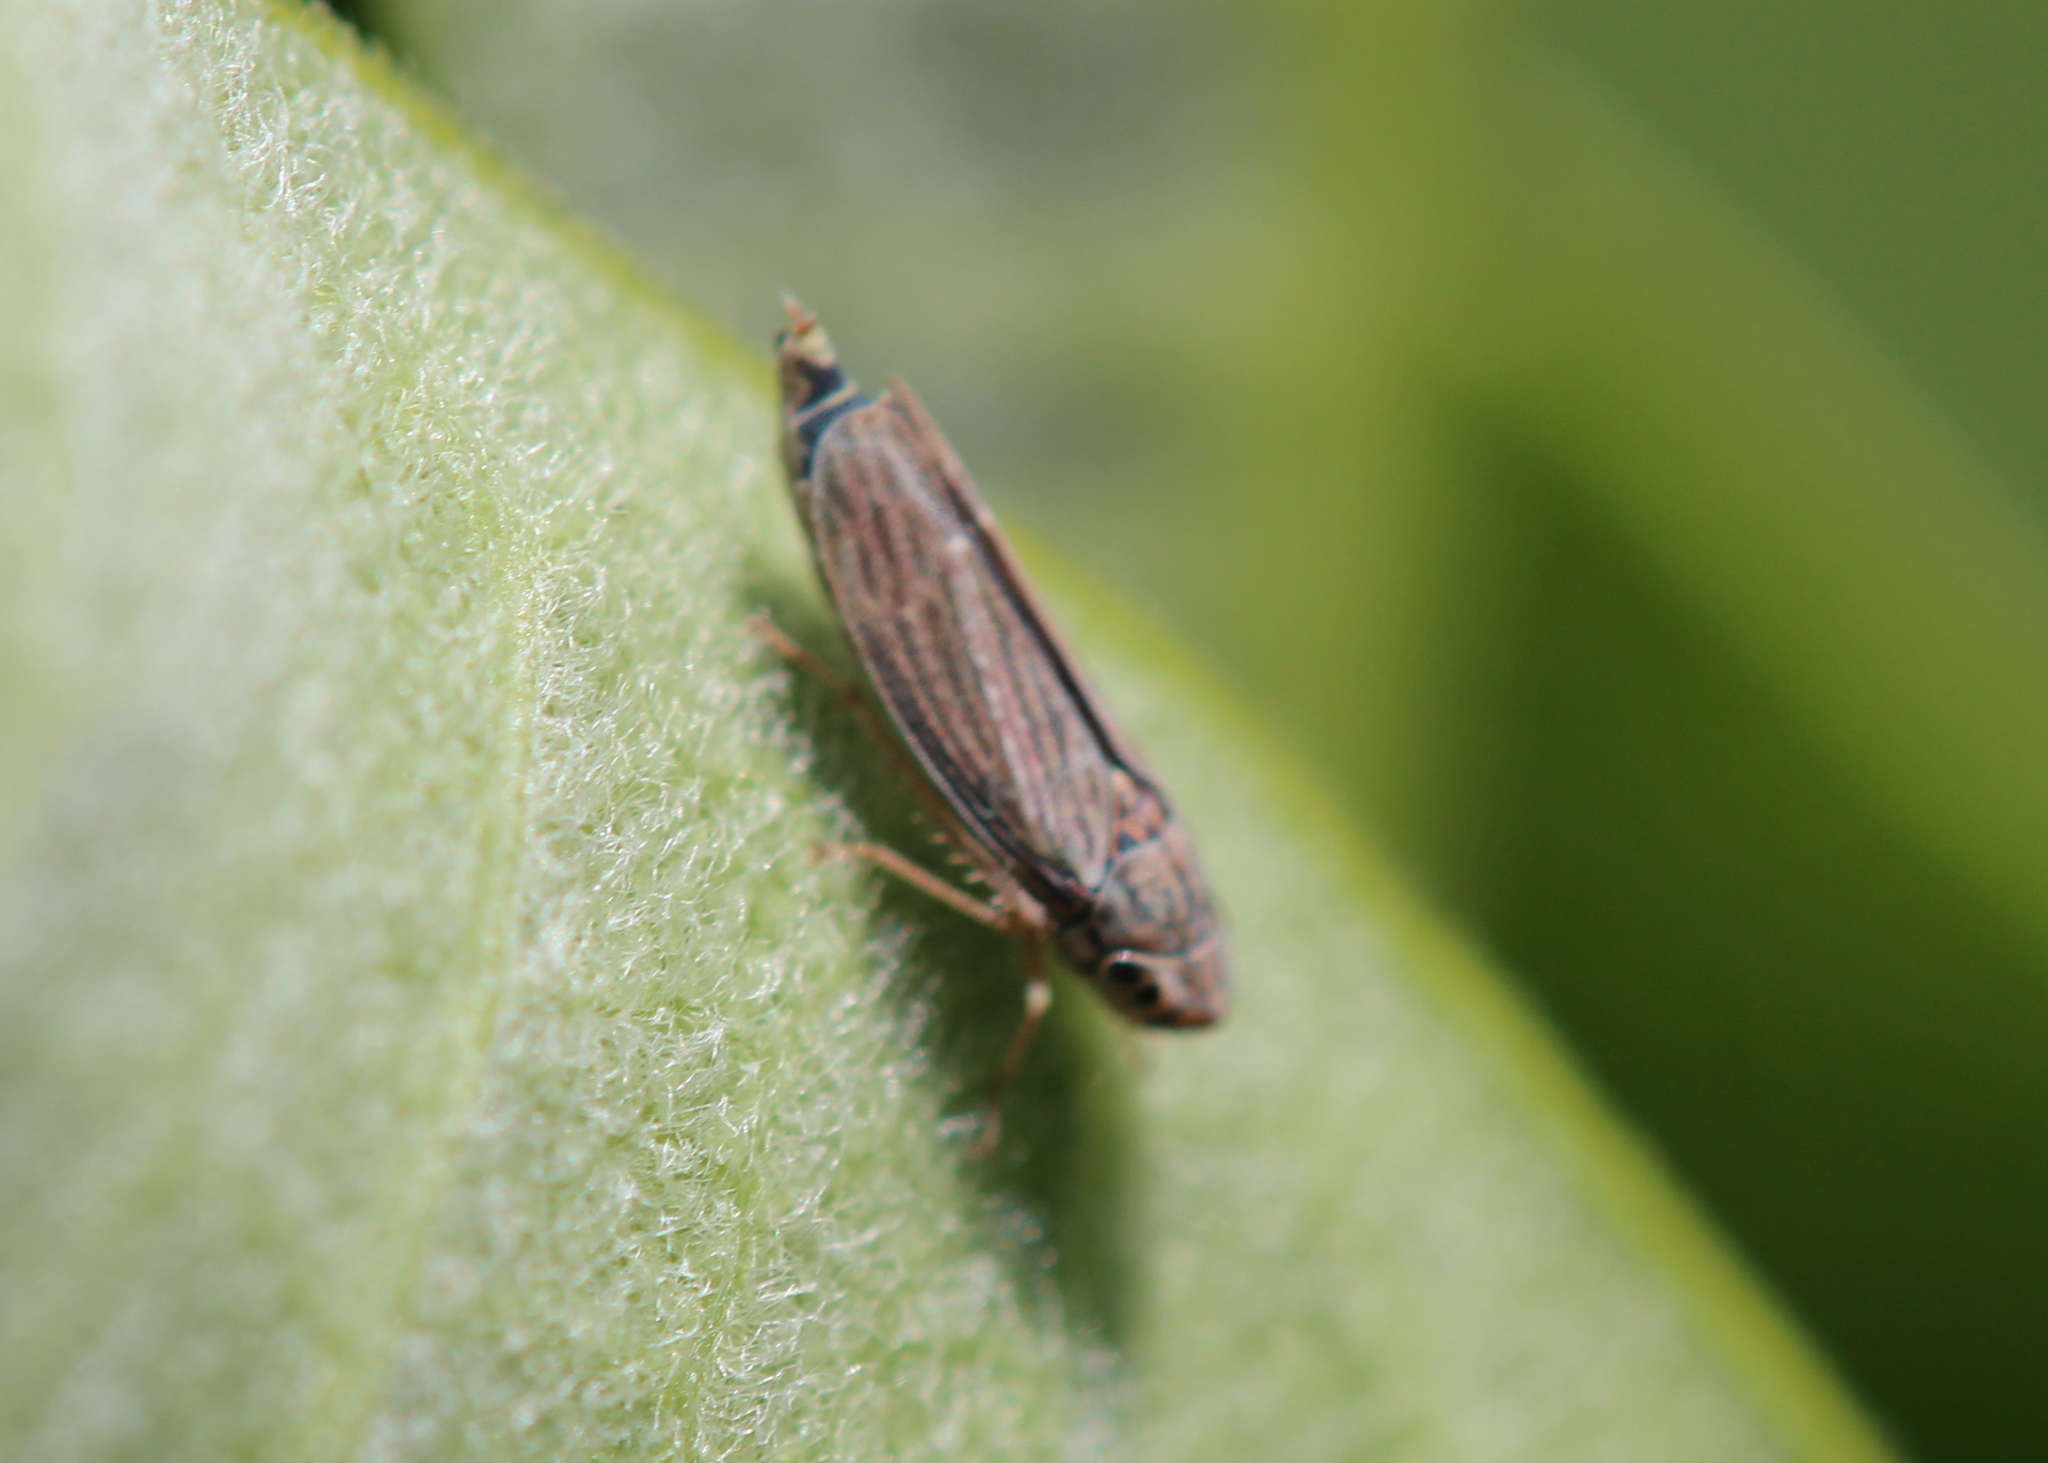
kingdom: Animalia
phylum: Arthropoda
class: Insecta
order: Hemiptera
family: Cicadellidae
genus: Neokolla
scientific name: Neokolla hieroglyphica
